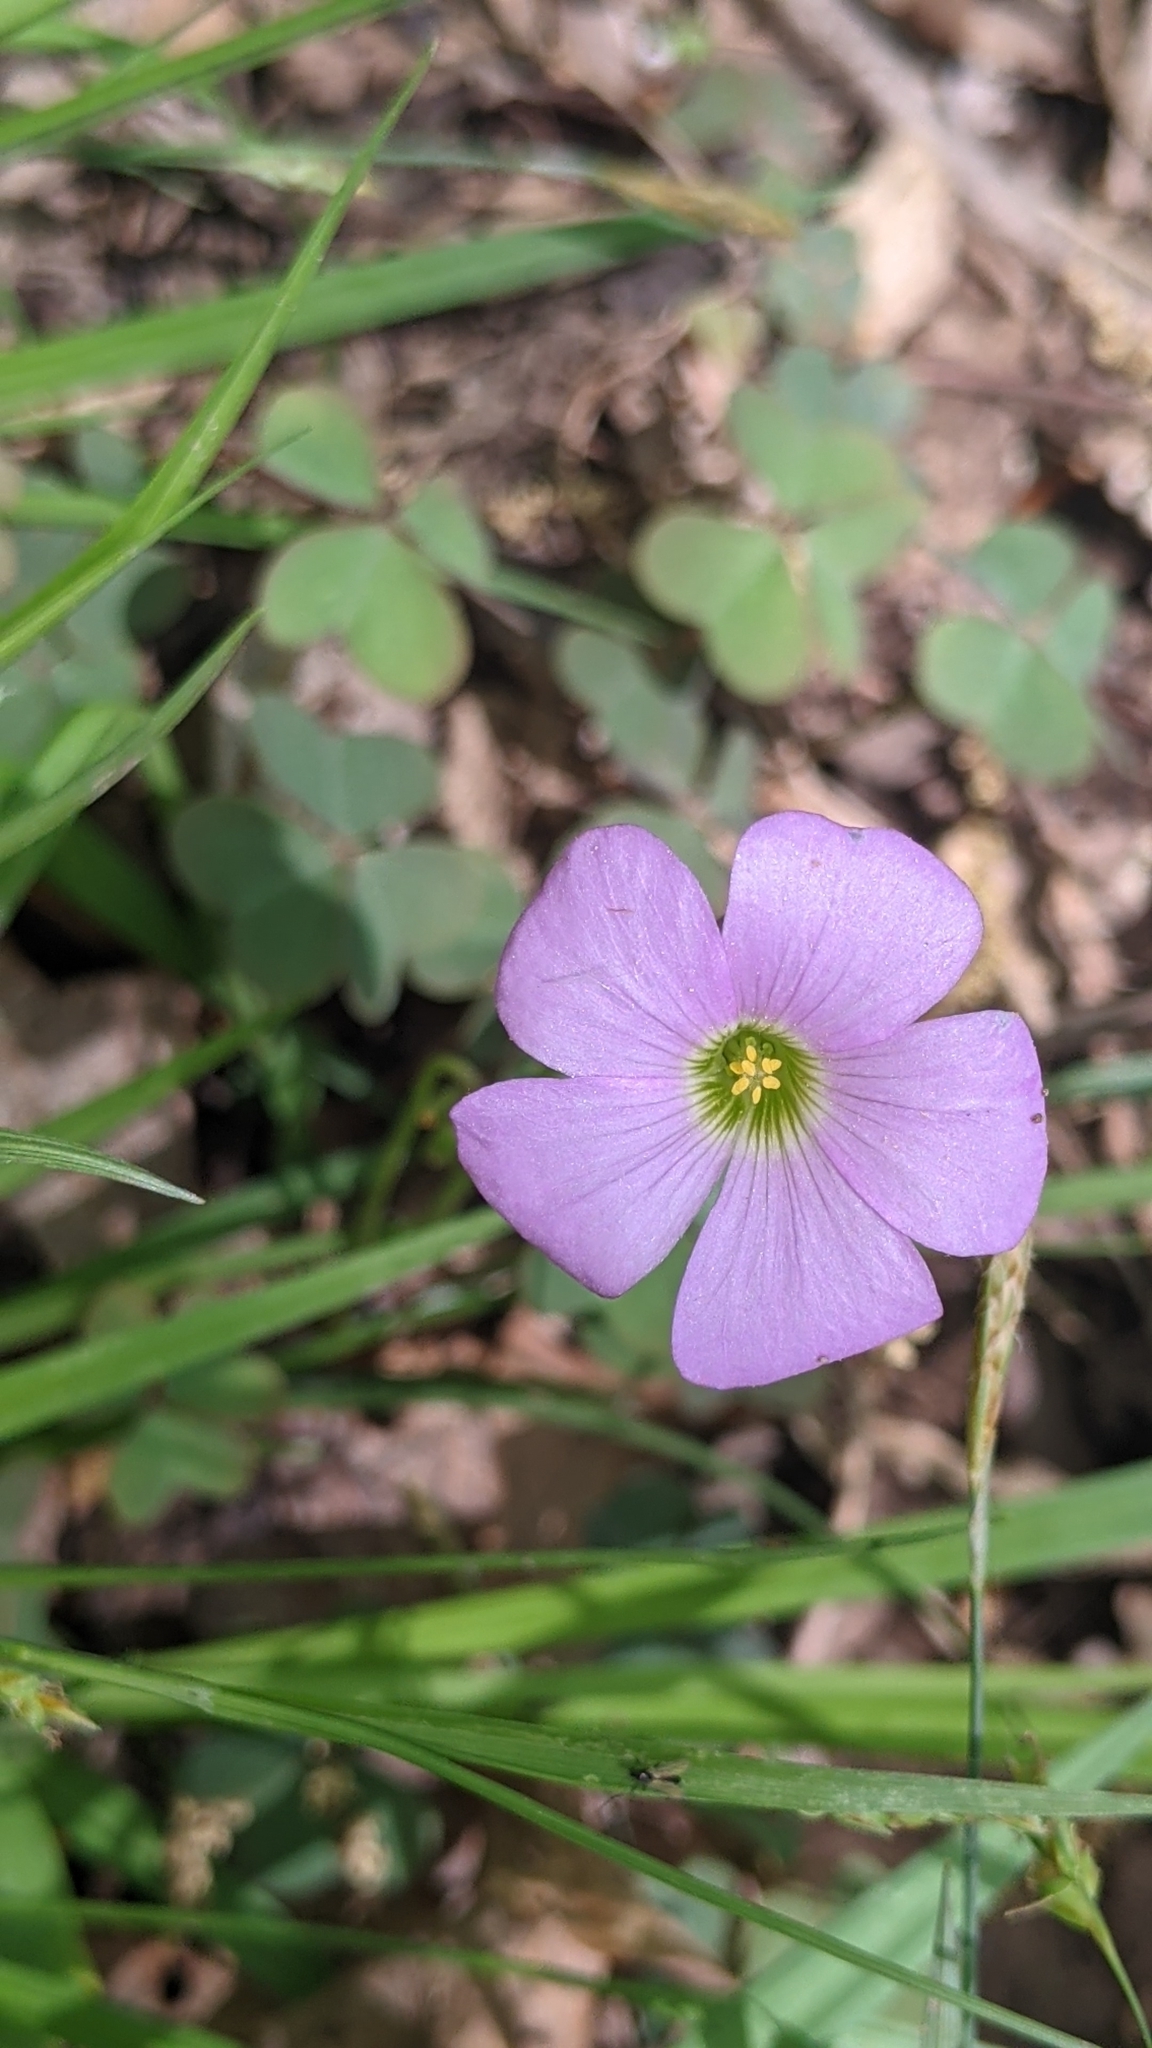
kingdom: Plantae
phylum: Tracheophyta
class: Magnoliopsida
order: Oxalidales
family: Oxalidaceae
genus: Oxalis
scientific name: Oxalis violacea
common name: Violet wood-sorrel
